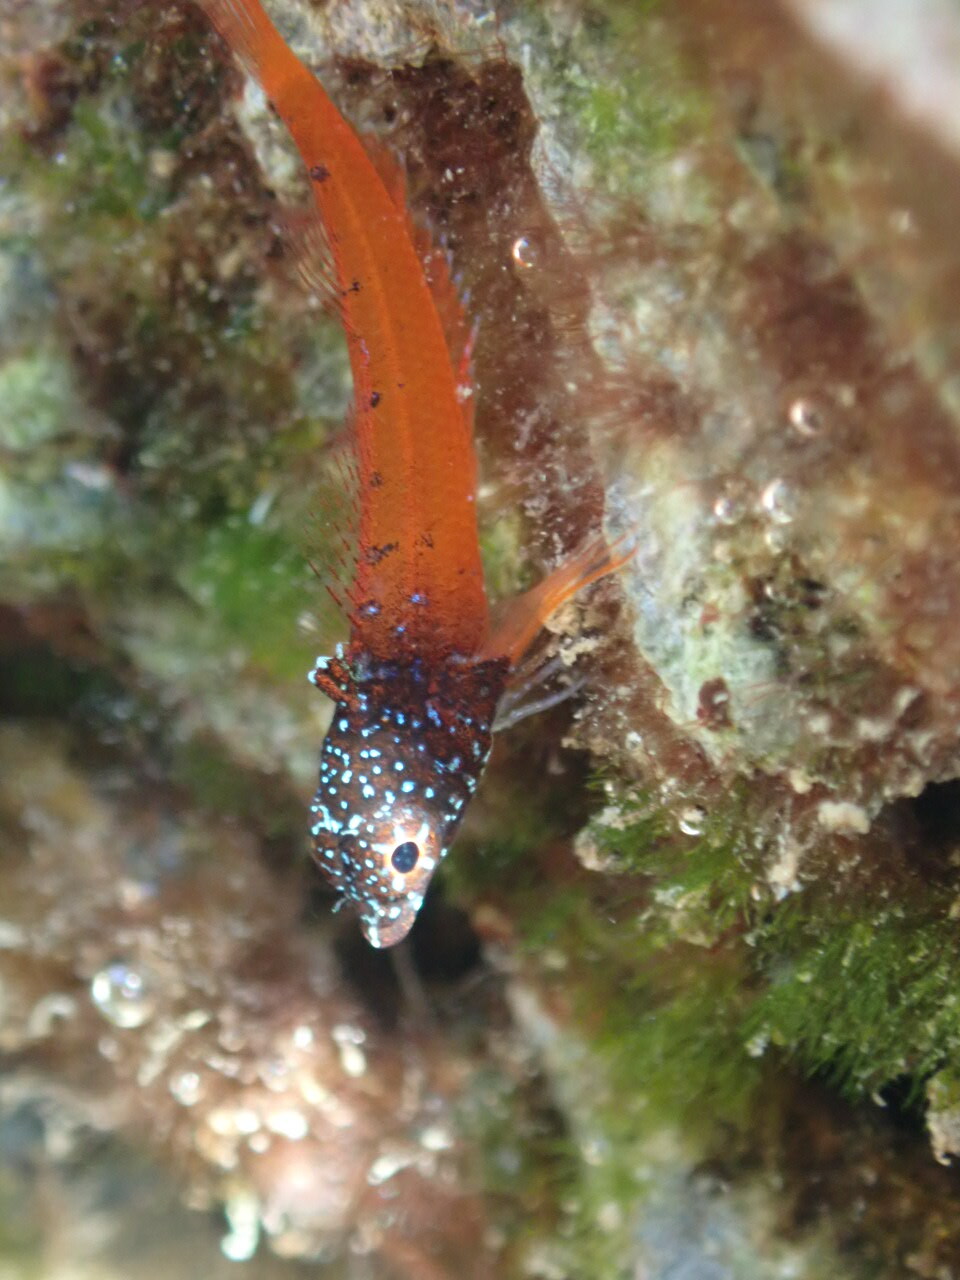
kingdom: Animalia
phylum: Chordata
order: Perciformes
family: Tripterygiidae
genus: Tripterygion
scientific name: Tripterygion melanurum
